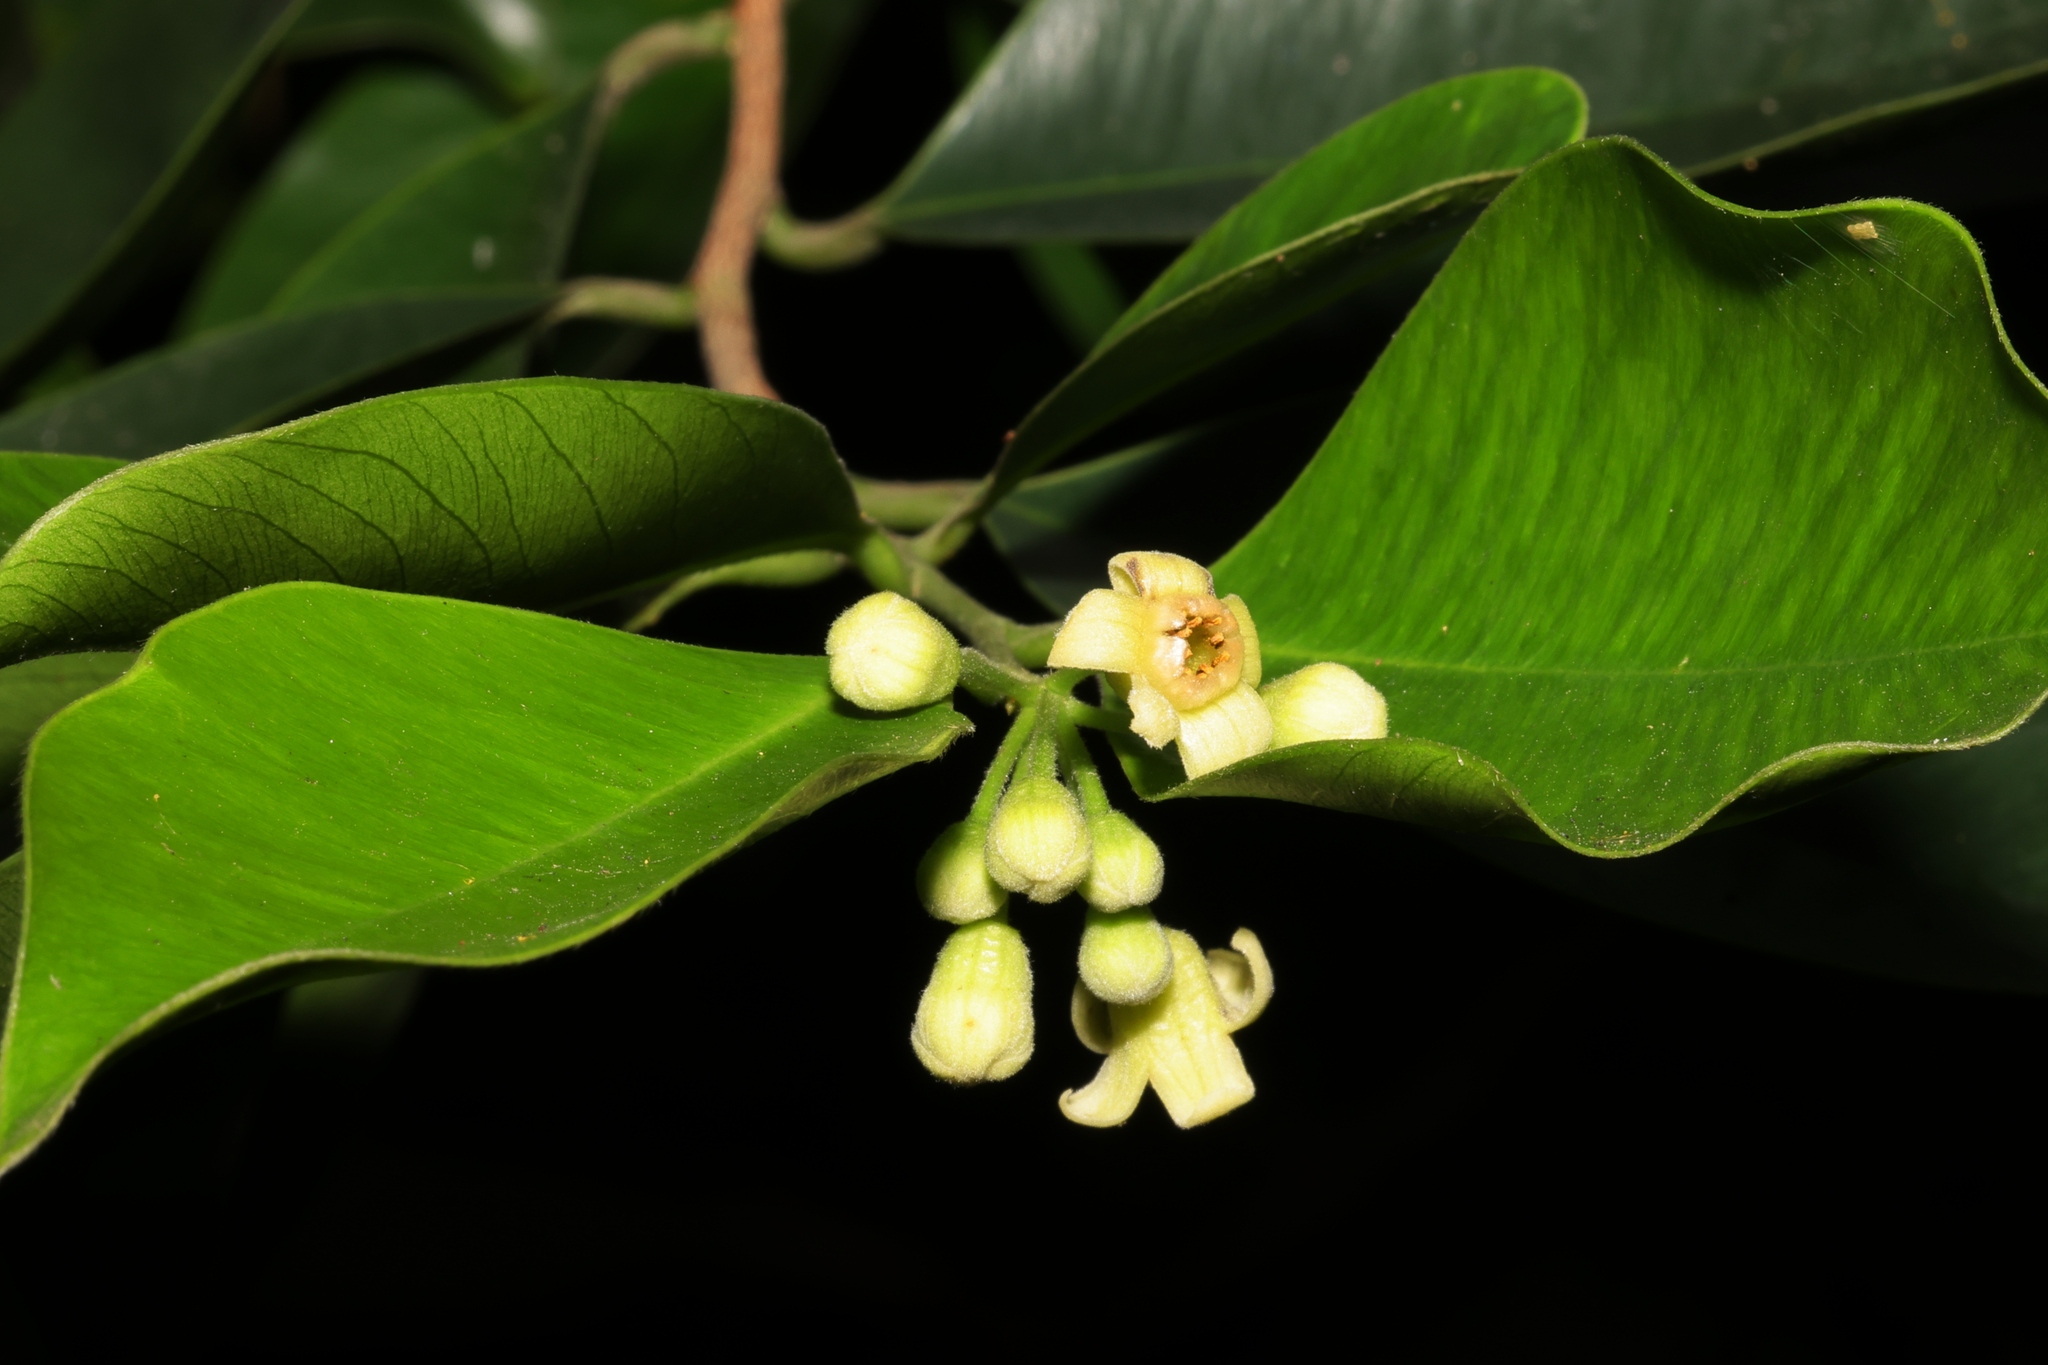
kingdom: Plantae
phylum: Tracheophyta
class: Magnoliopsida
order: Malvales
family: Thymelaeaceae
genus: Aquilaria
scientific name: Aquilaria sinensis
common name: Chinese agarwood
